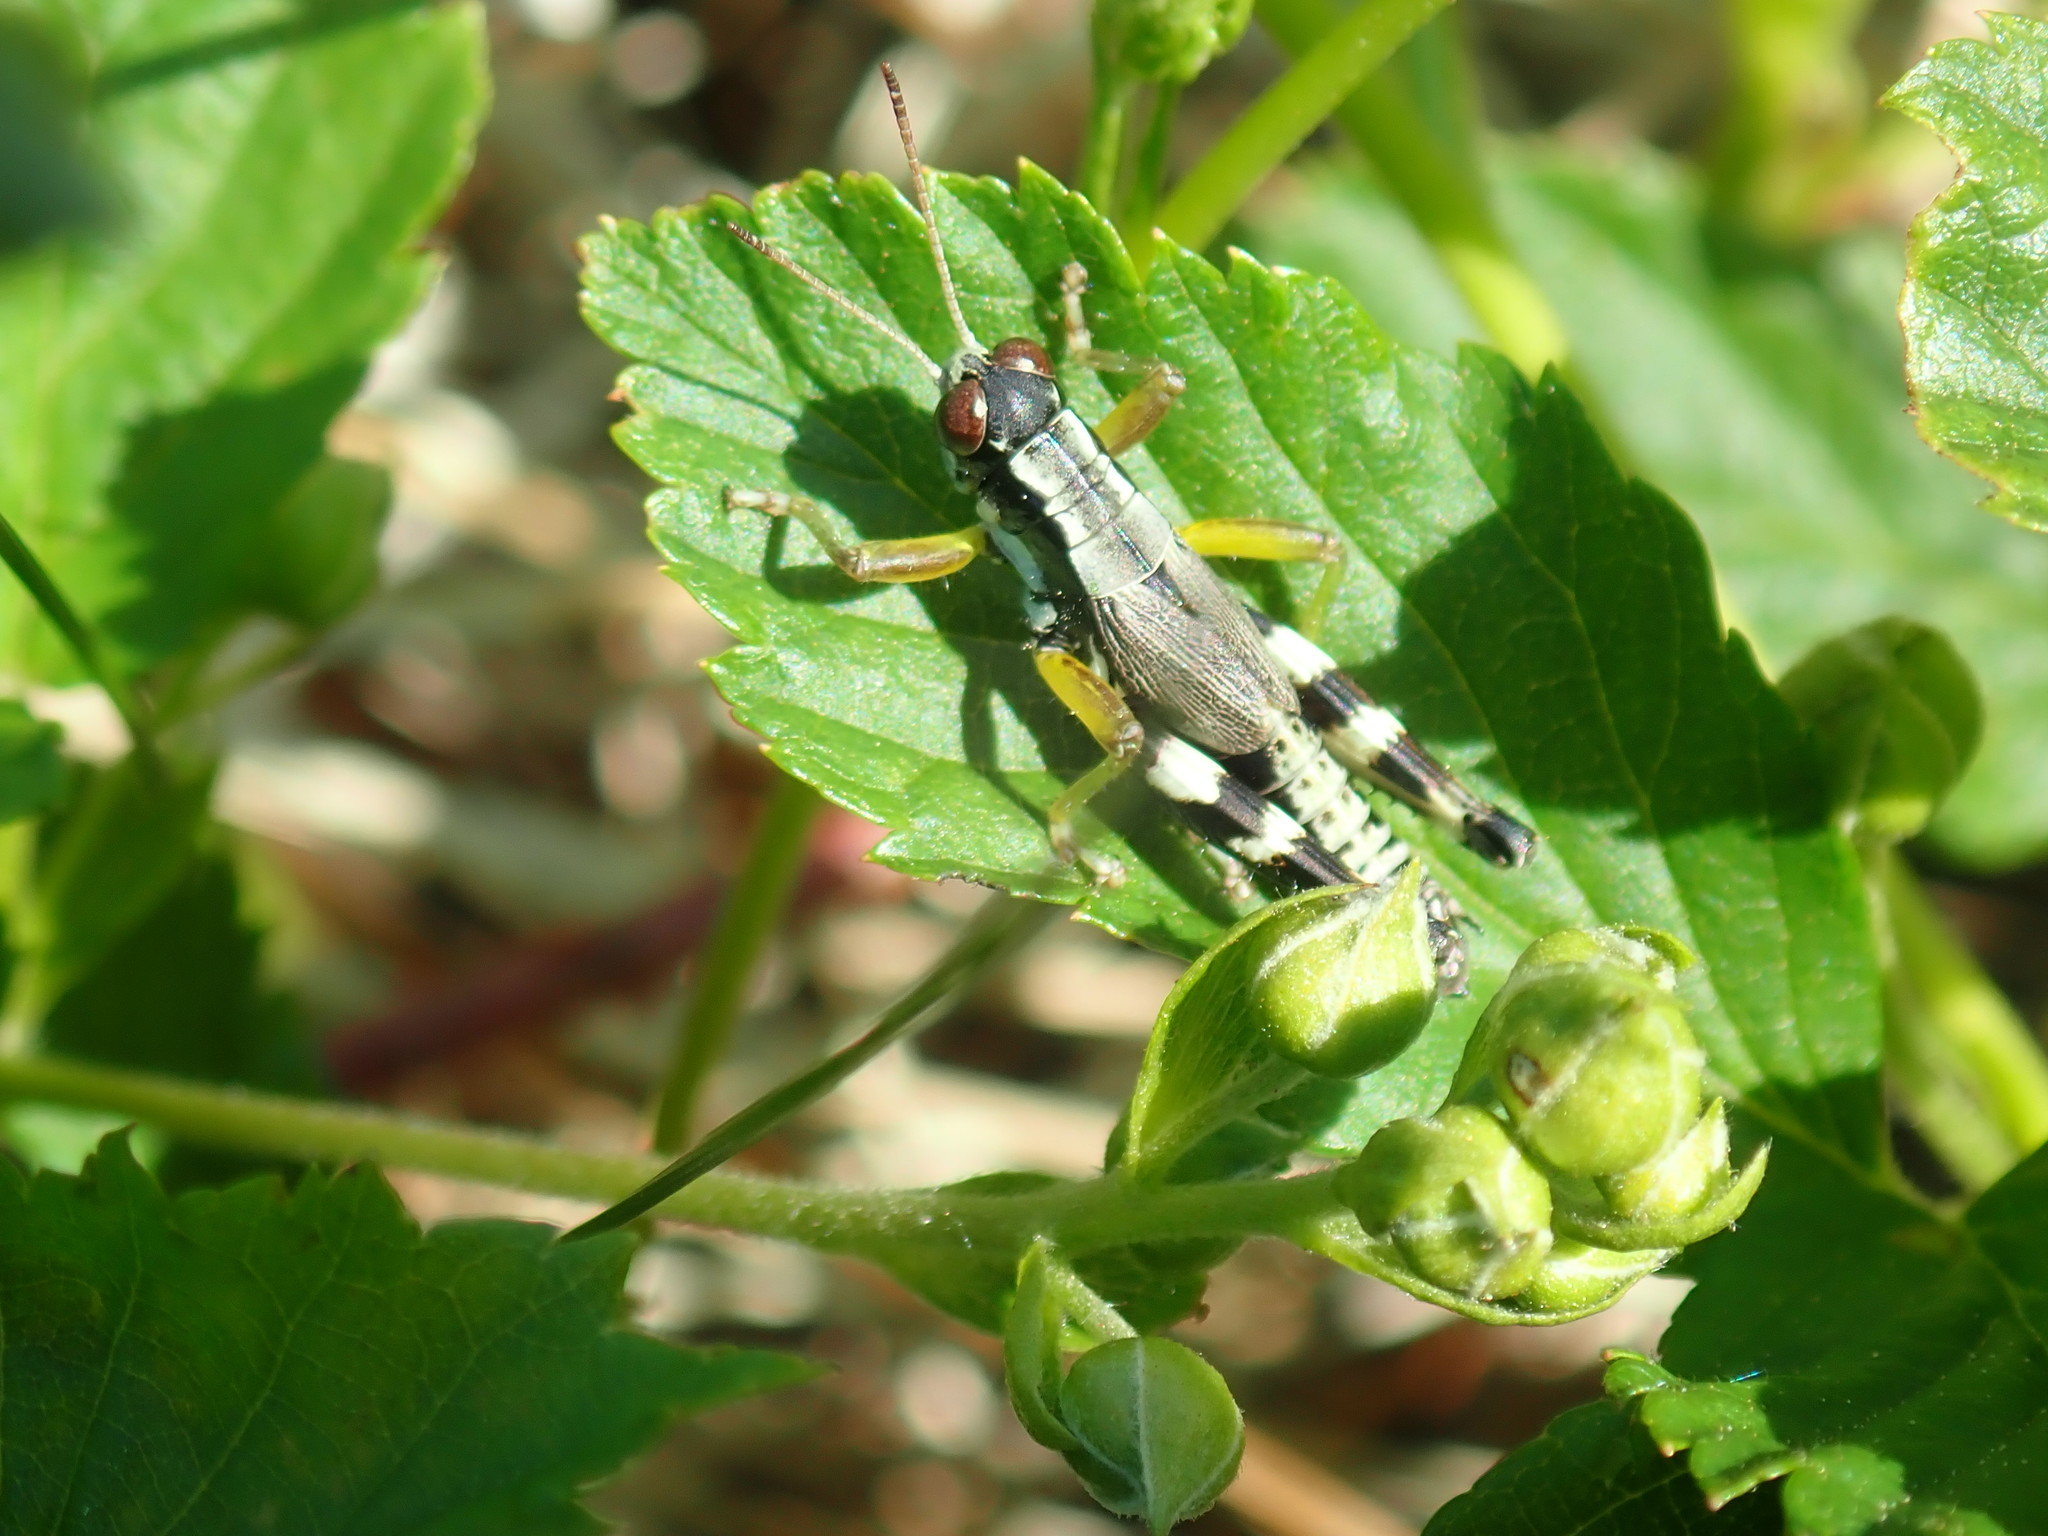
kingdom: Animalia
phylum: Arthropoda
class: Insecta
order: Orthoptera
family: Acrididae
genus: Melanoplus
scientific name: Melanoplus viridipes
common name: Green-legged locust
